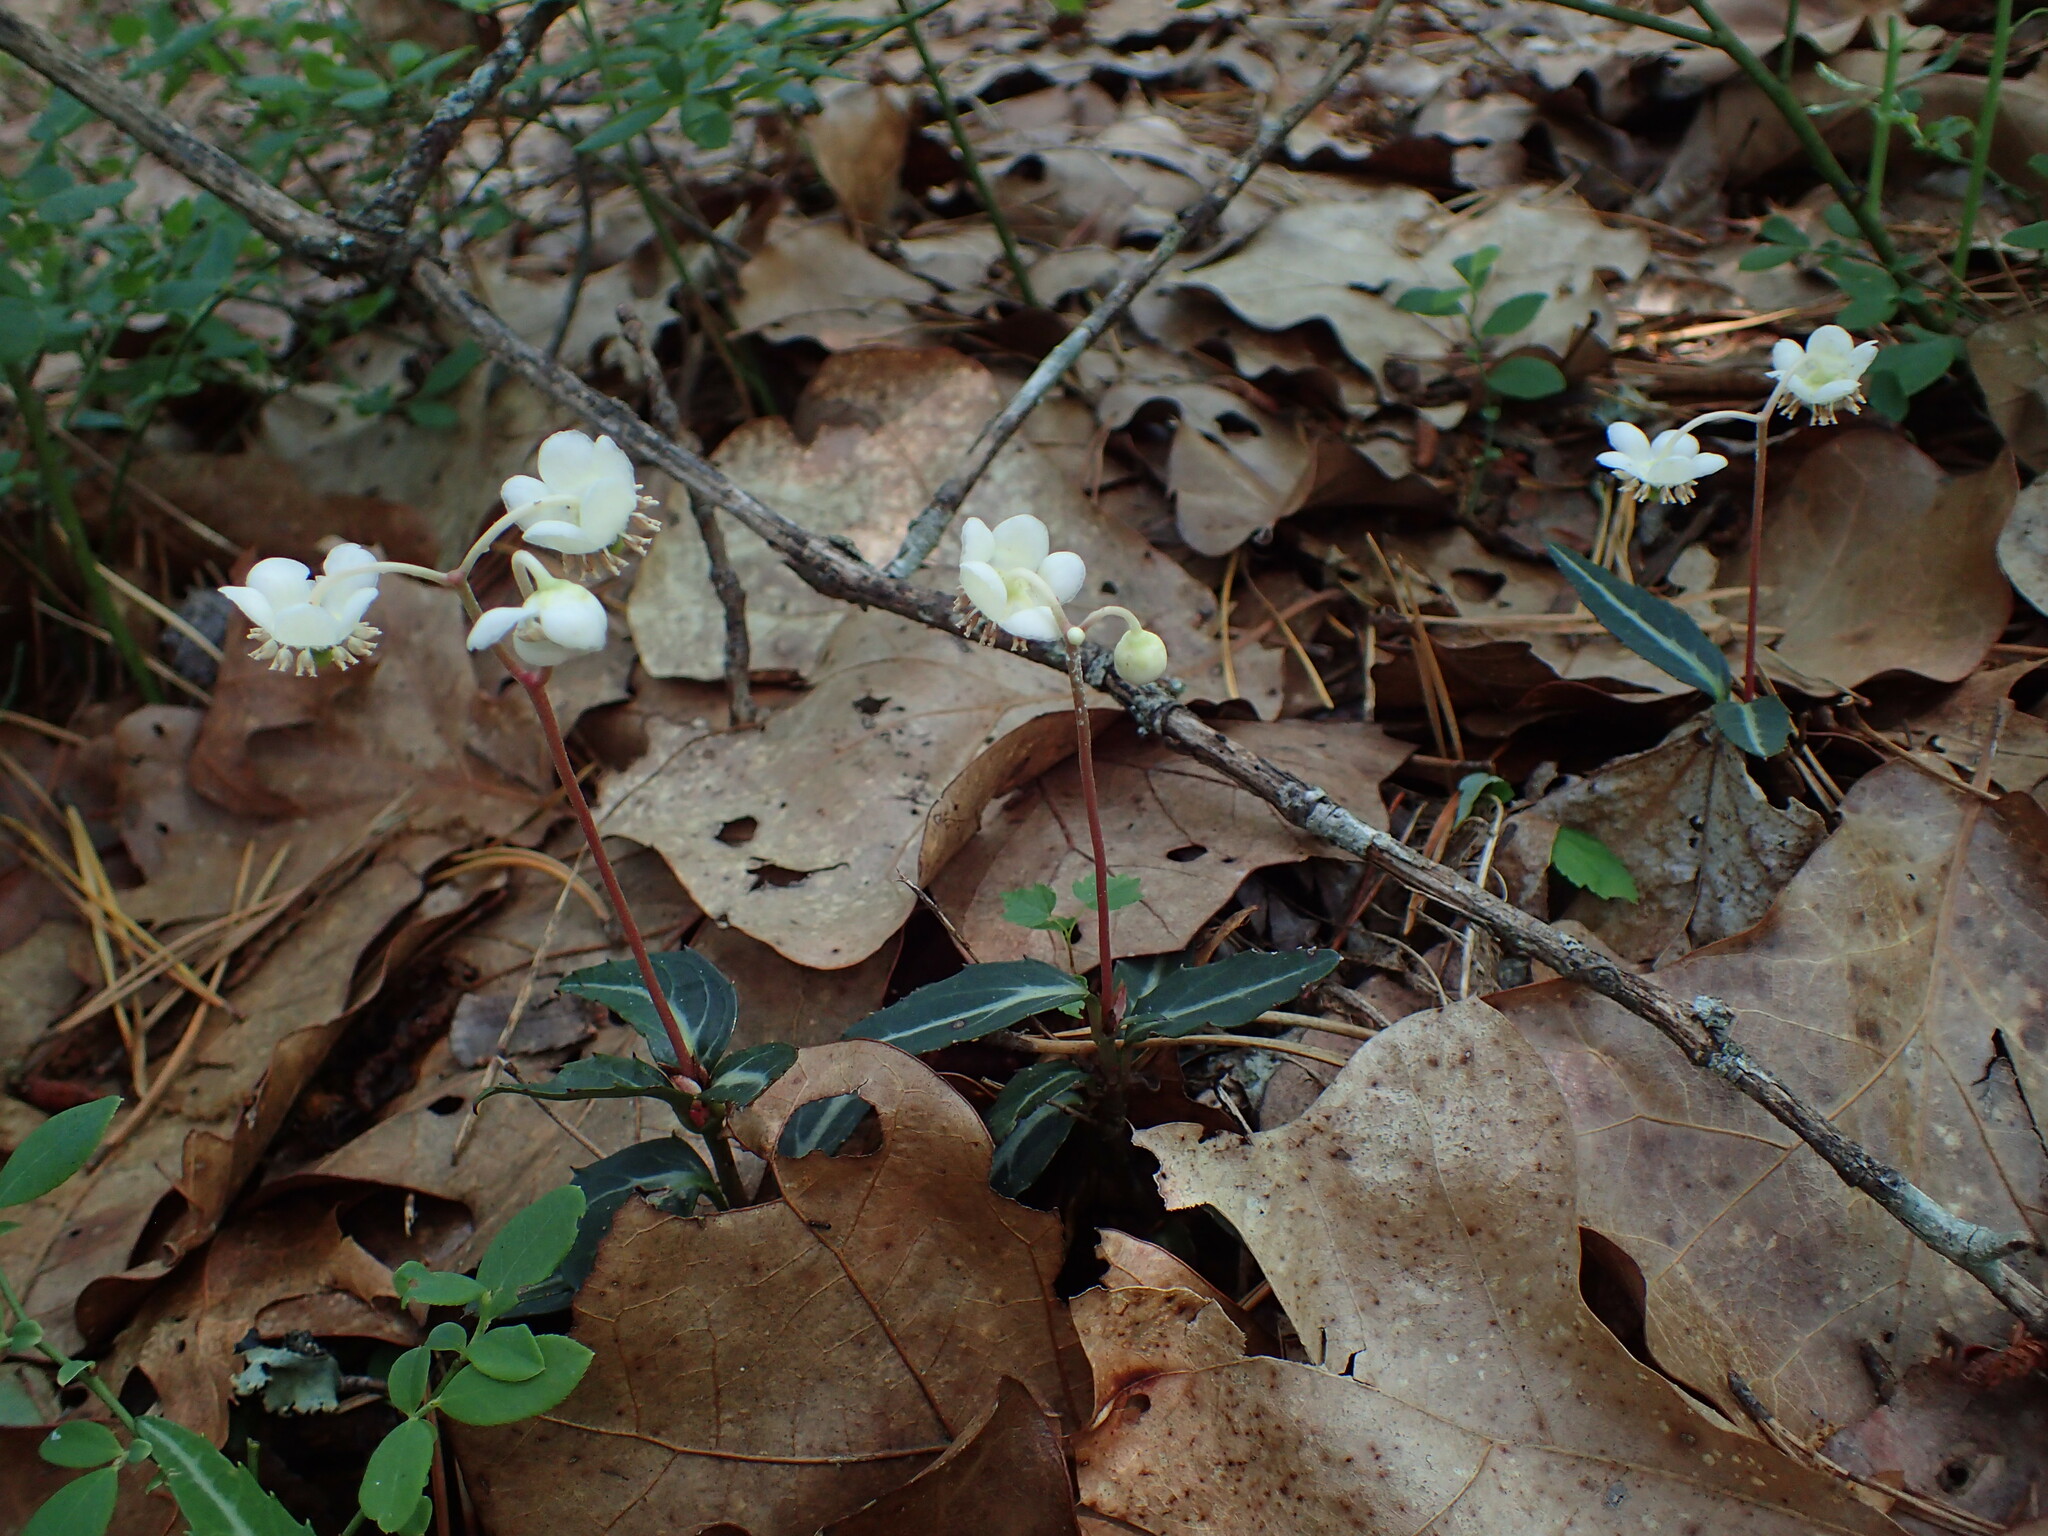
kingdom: Plantae
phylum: Tracheophyta
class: Magnoliopsida
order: Ericales
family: Ericaceae
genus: Chimaphila
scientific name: Chimaphila maculata
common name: Spotted pipsissewa
